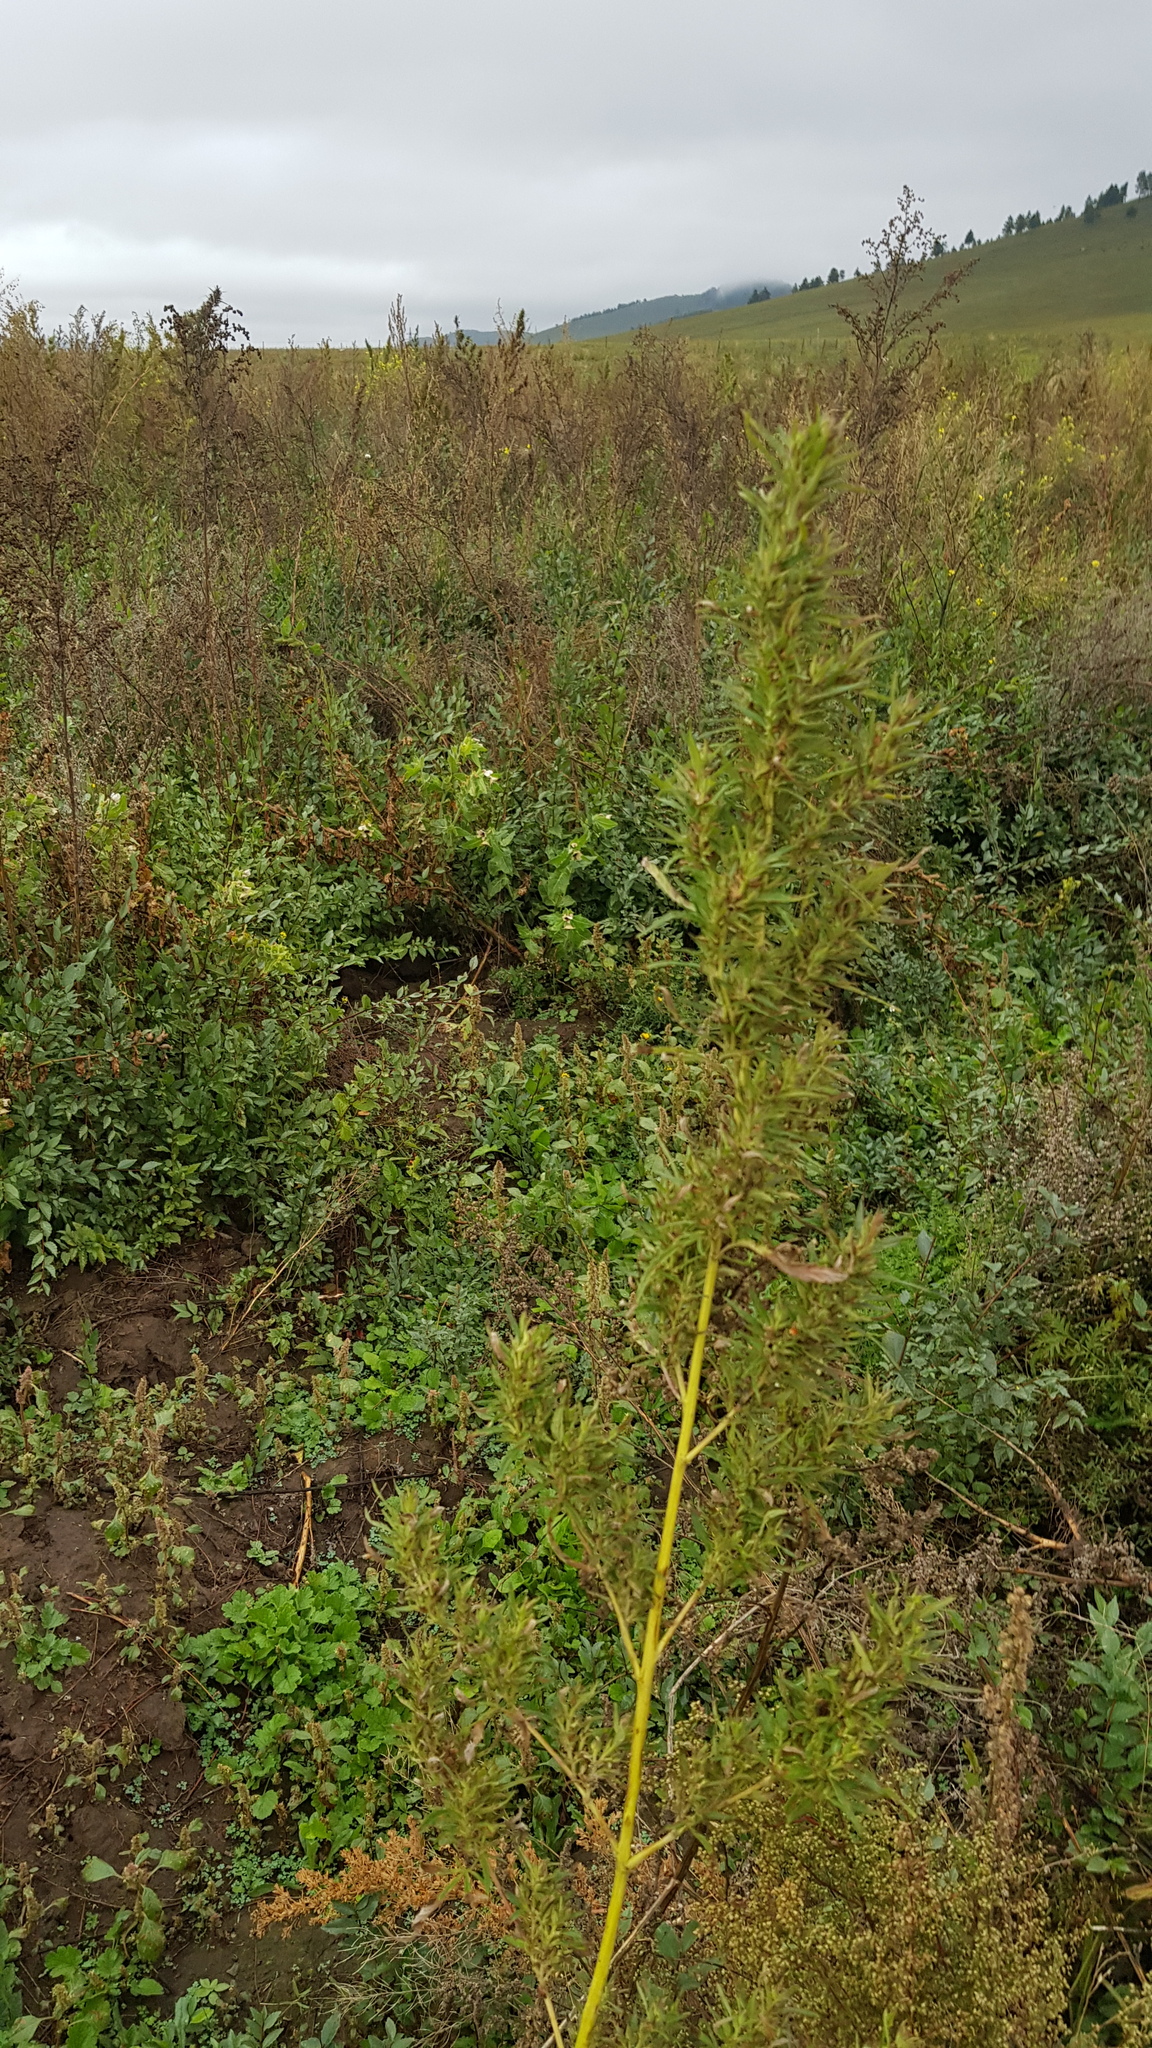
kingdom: Plantae
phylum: Tracheophyta
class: Magnoliopsida
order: Rosales
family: Cannabaceae
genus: Cannabis
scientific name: Cannabis sativa
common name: Hemp
